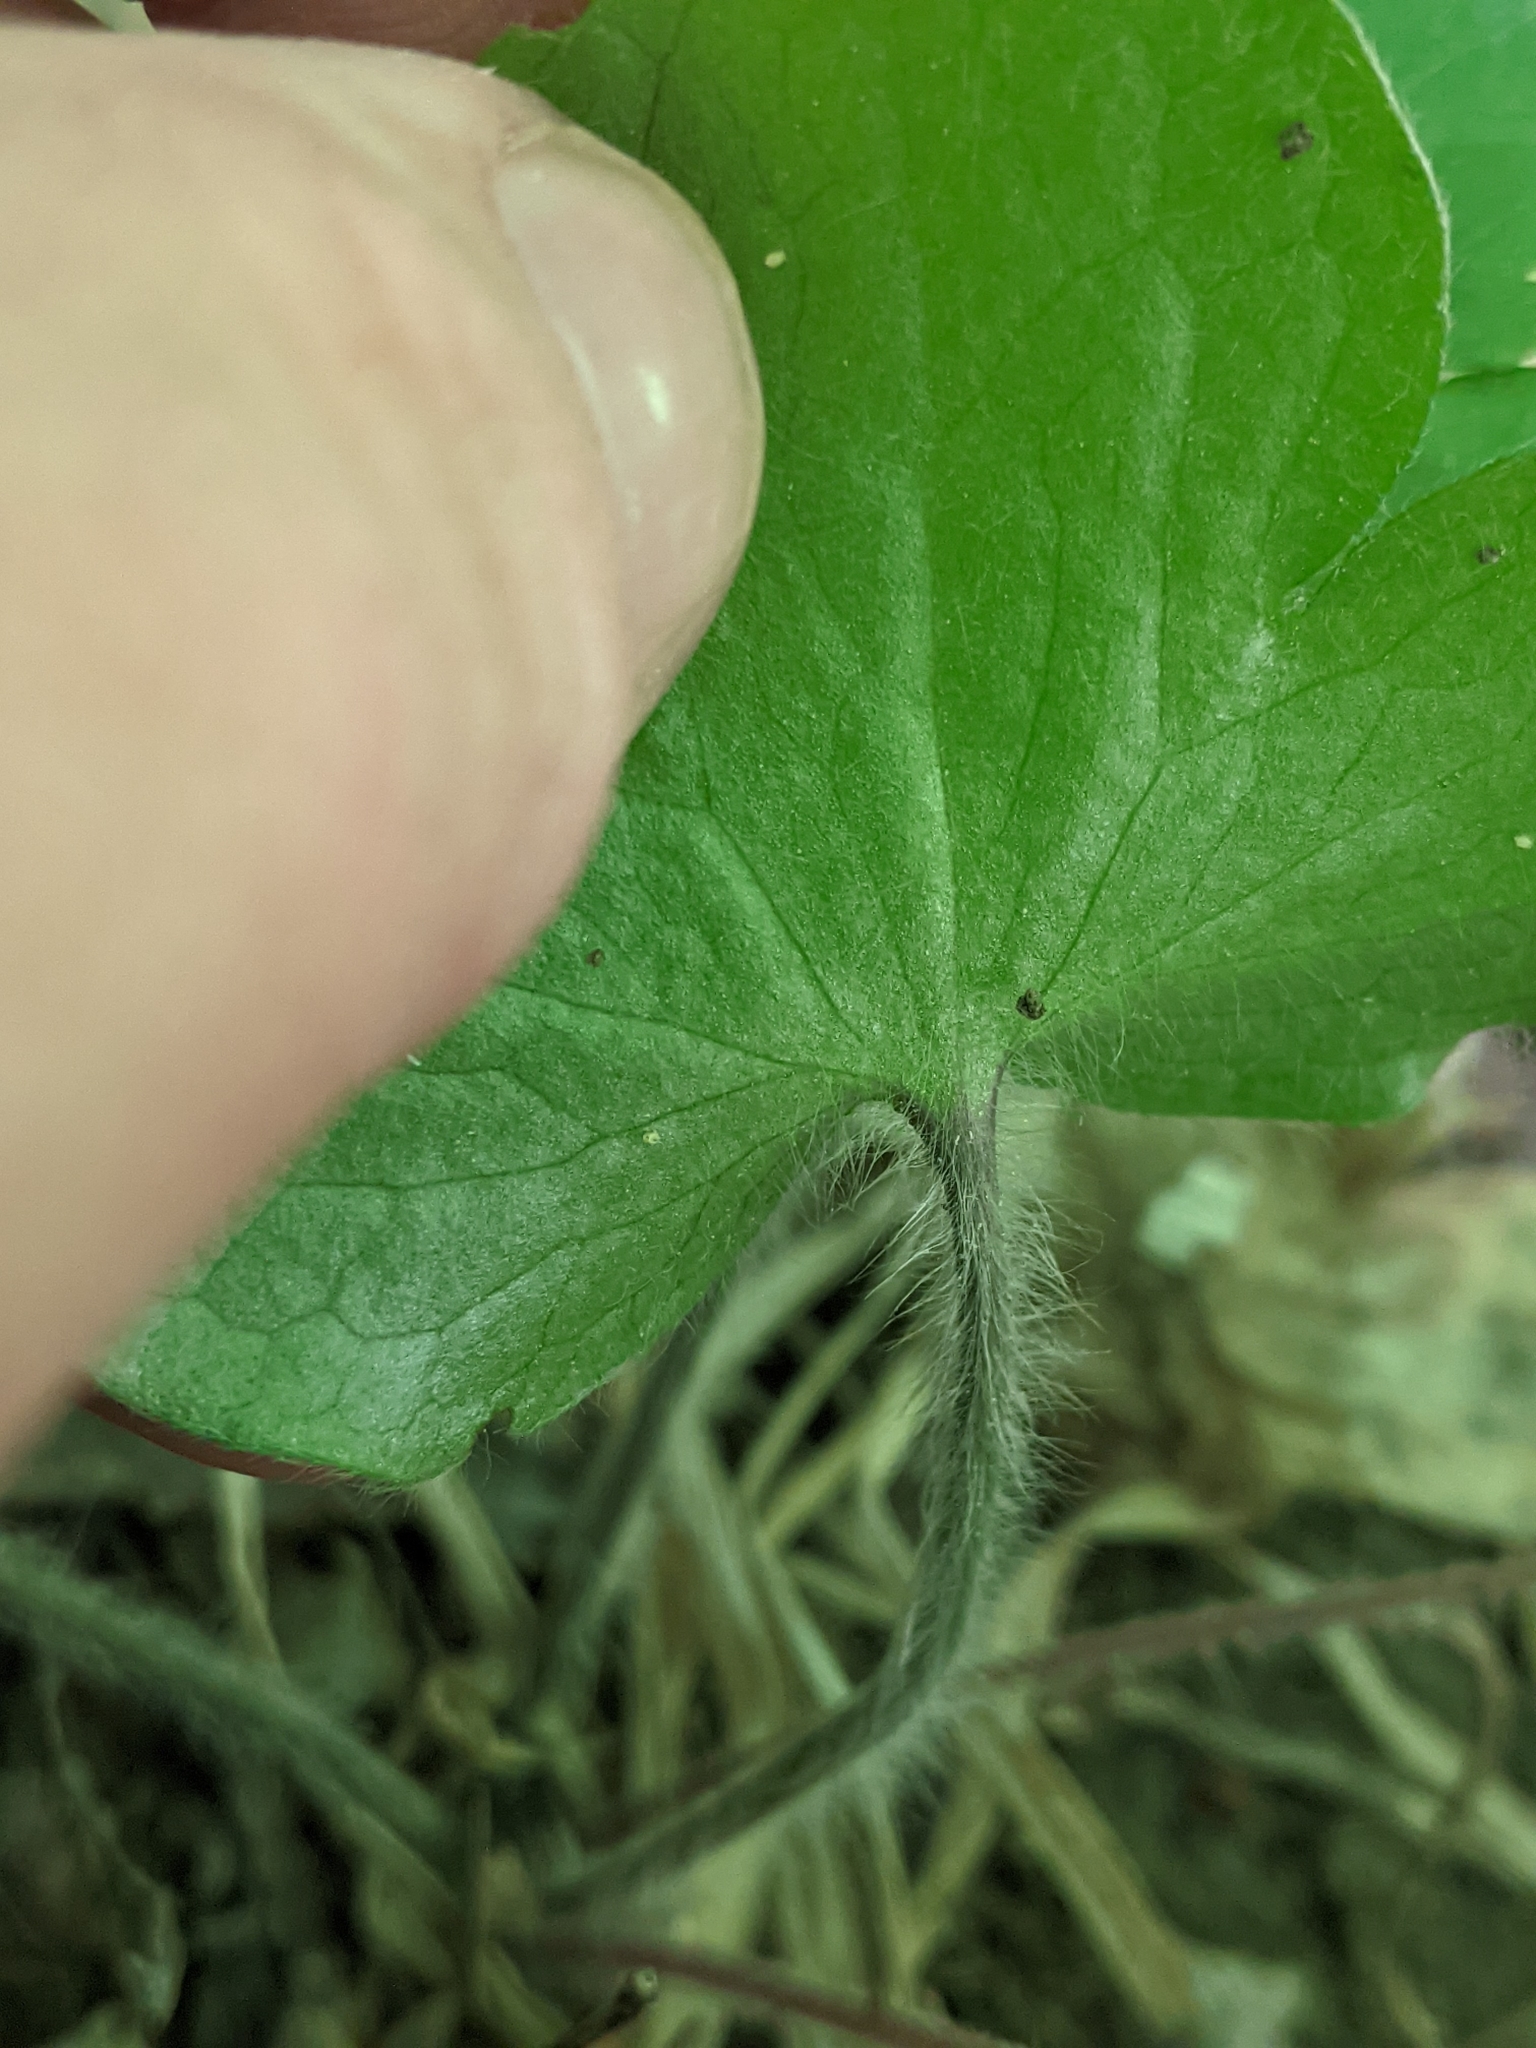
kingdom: Plantae
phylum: Tracheophyta
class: Magnoliopsida
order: Ranunculales
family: Ranunculaceae
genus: Hepatica
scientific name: Hepatica americana
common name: American hepatica
